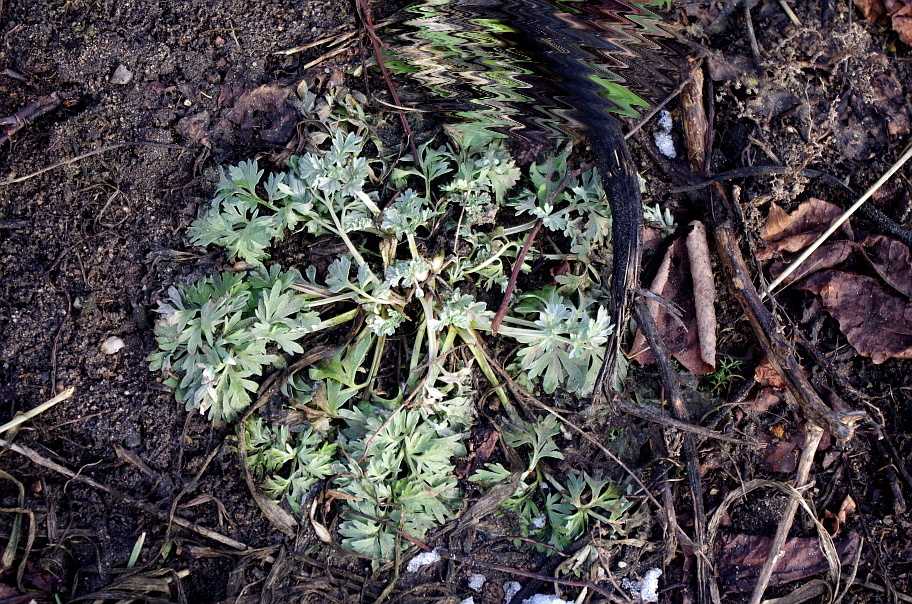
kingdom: Plantae
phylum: Tracheophyta
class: Magnoliopsida
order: Asterales
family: Asteraceae
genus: Artemisia
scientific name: Artemisia absinthium
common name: Wormwood
